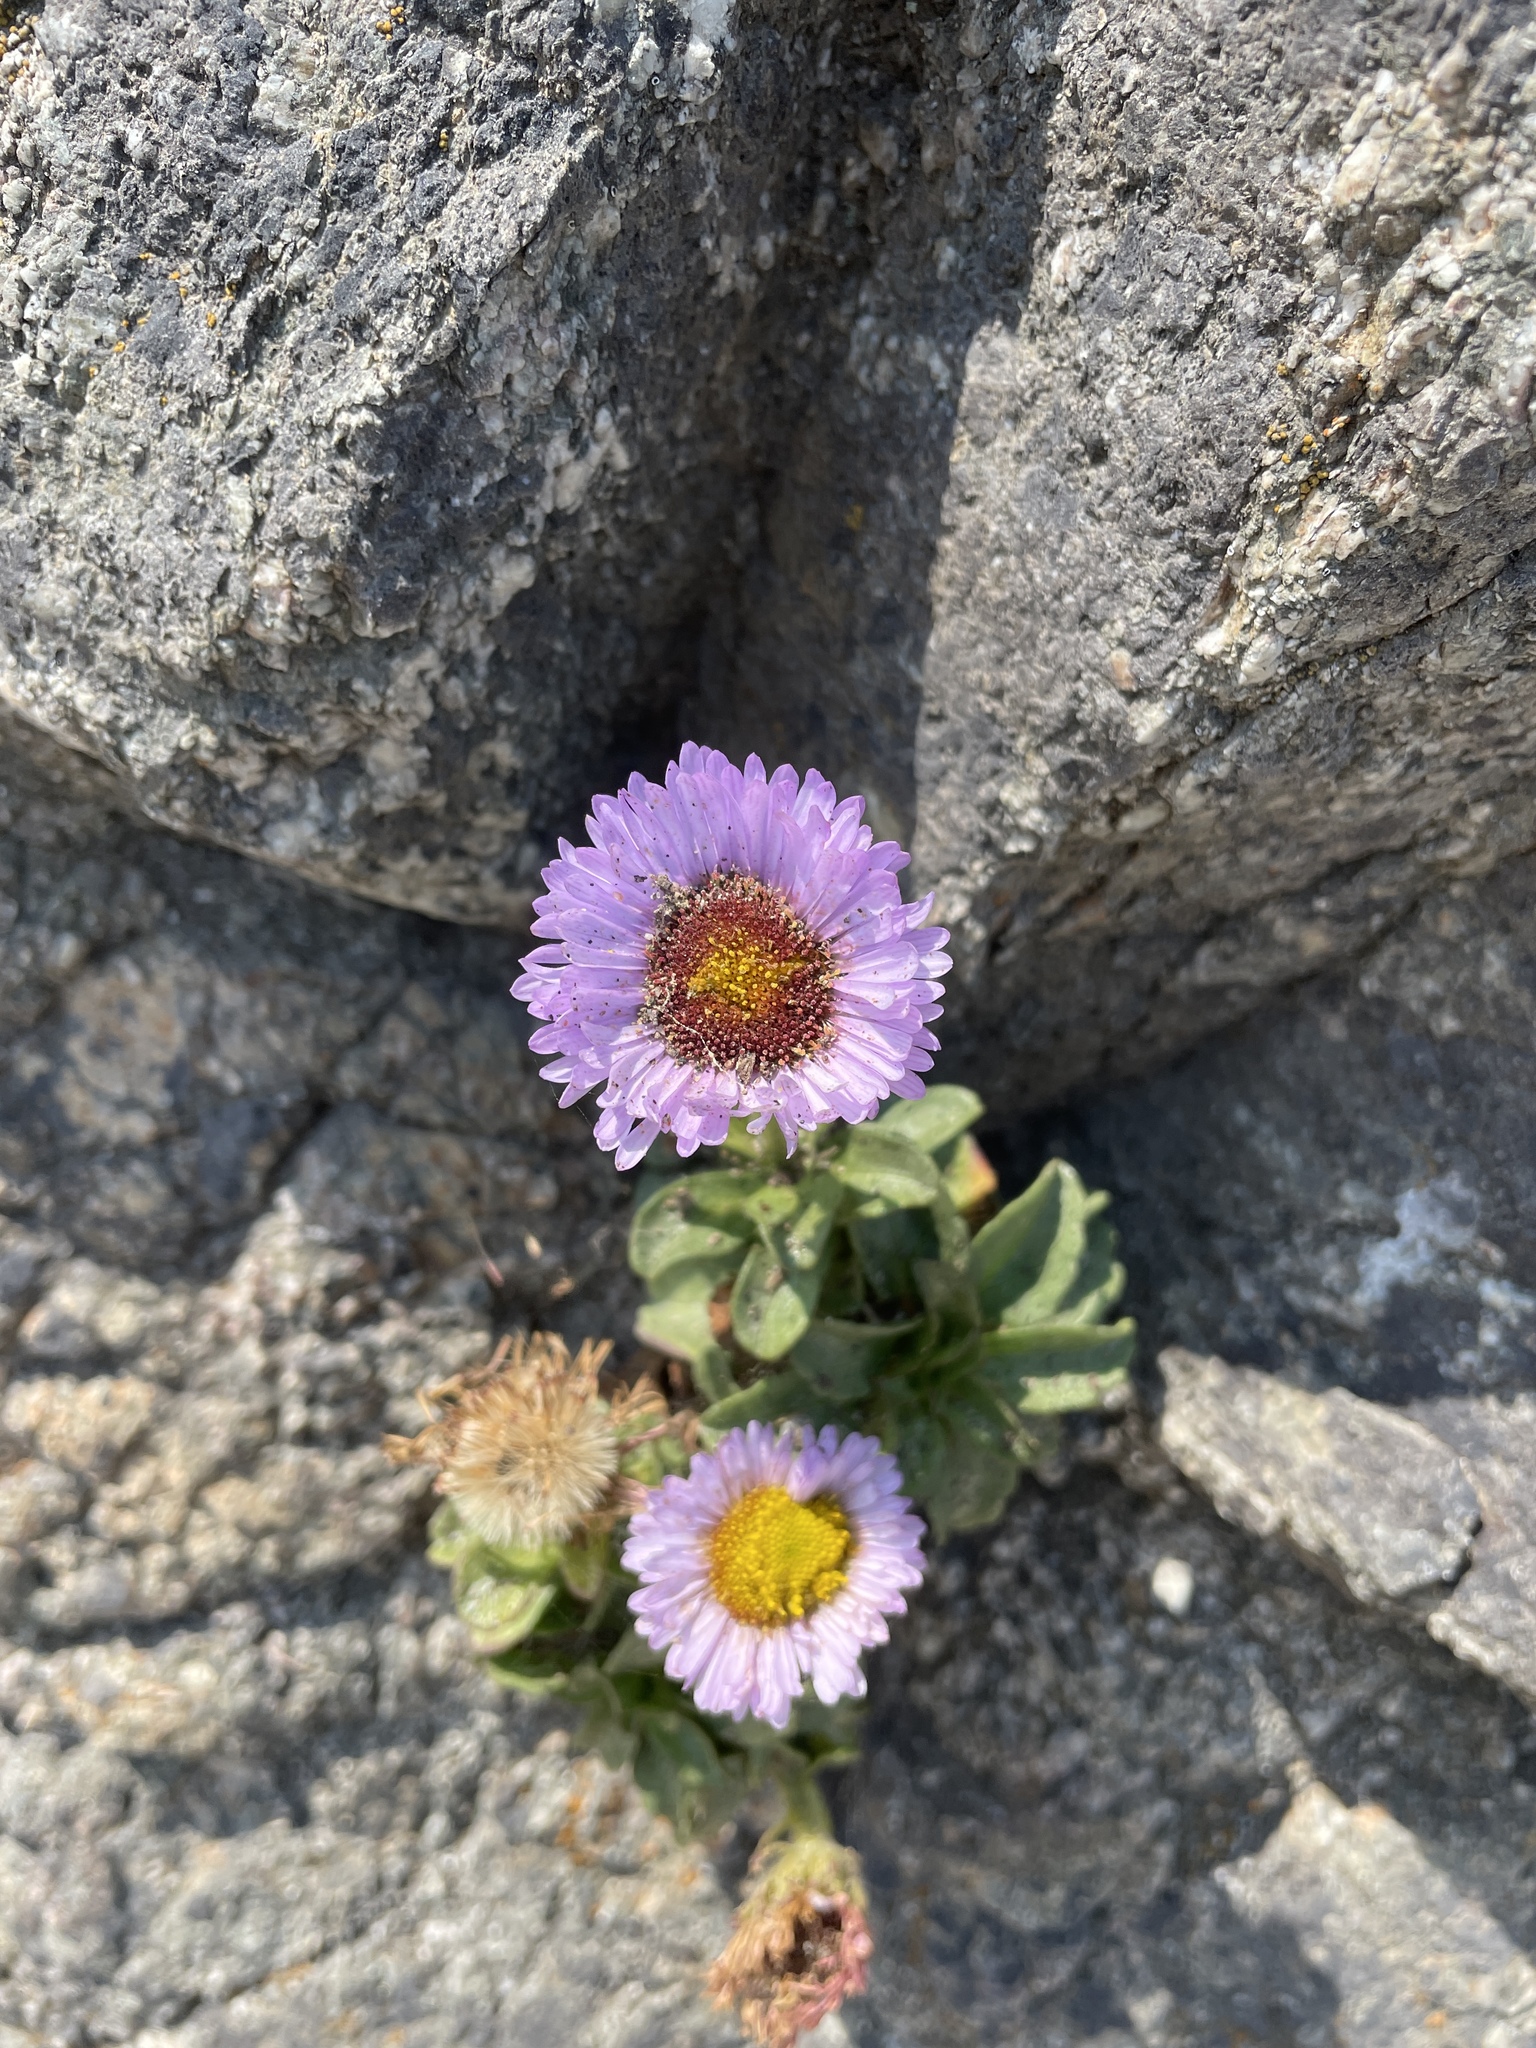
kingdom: Plantae
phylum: Tracheophyta
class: Magnoliopsida
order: Asterales
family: Asteraceae
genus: Erigeron
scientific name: Erigeron glaucus
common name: Seaside daisy
